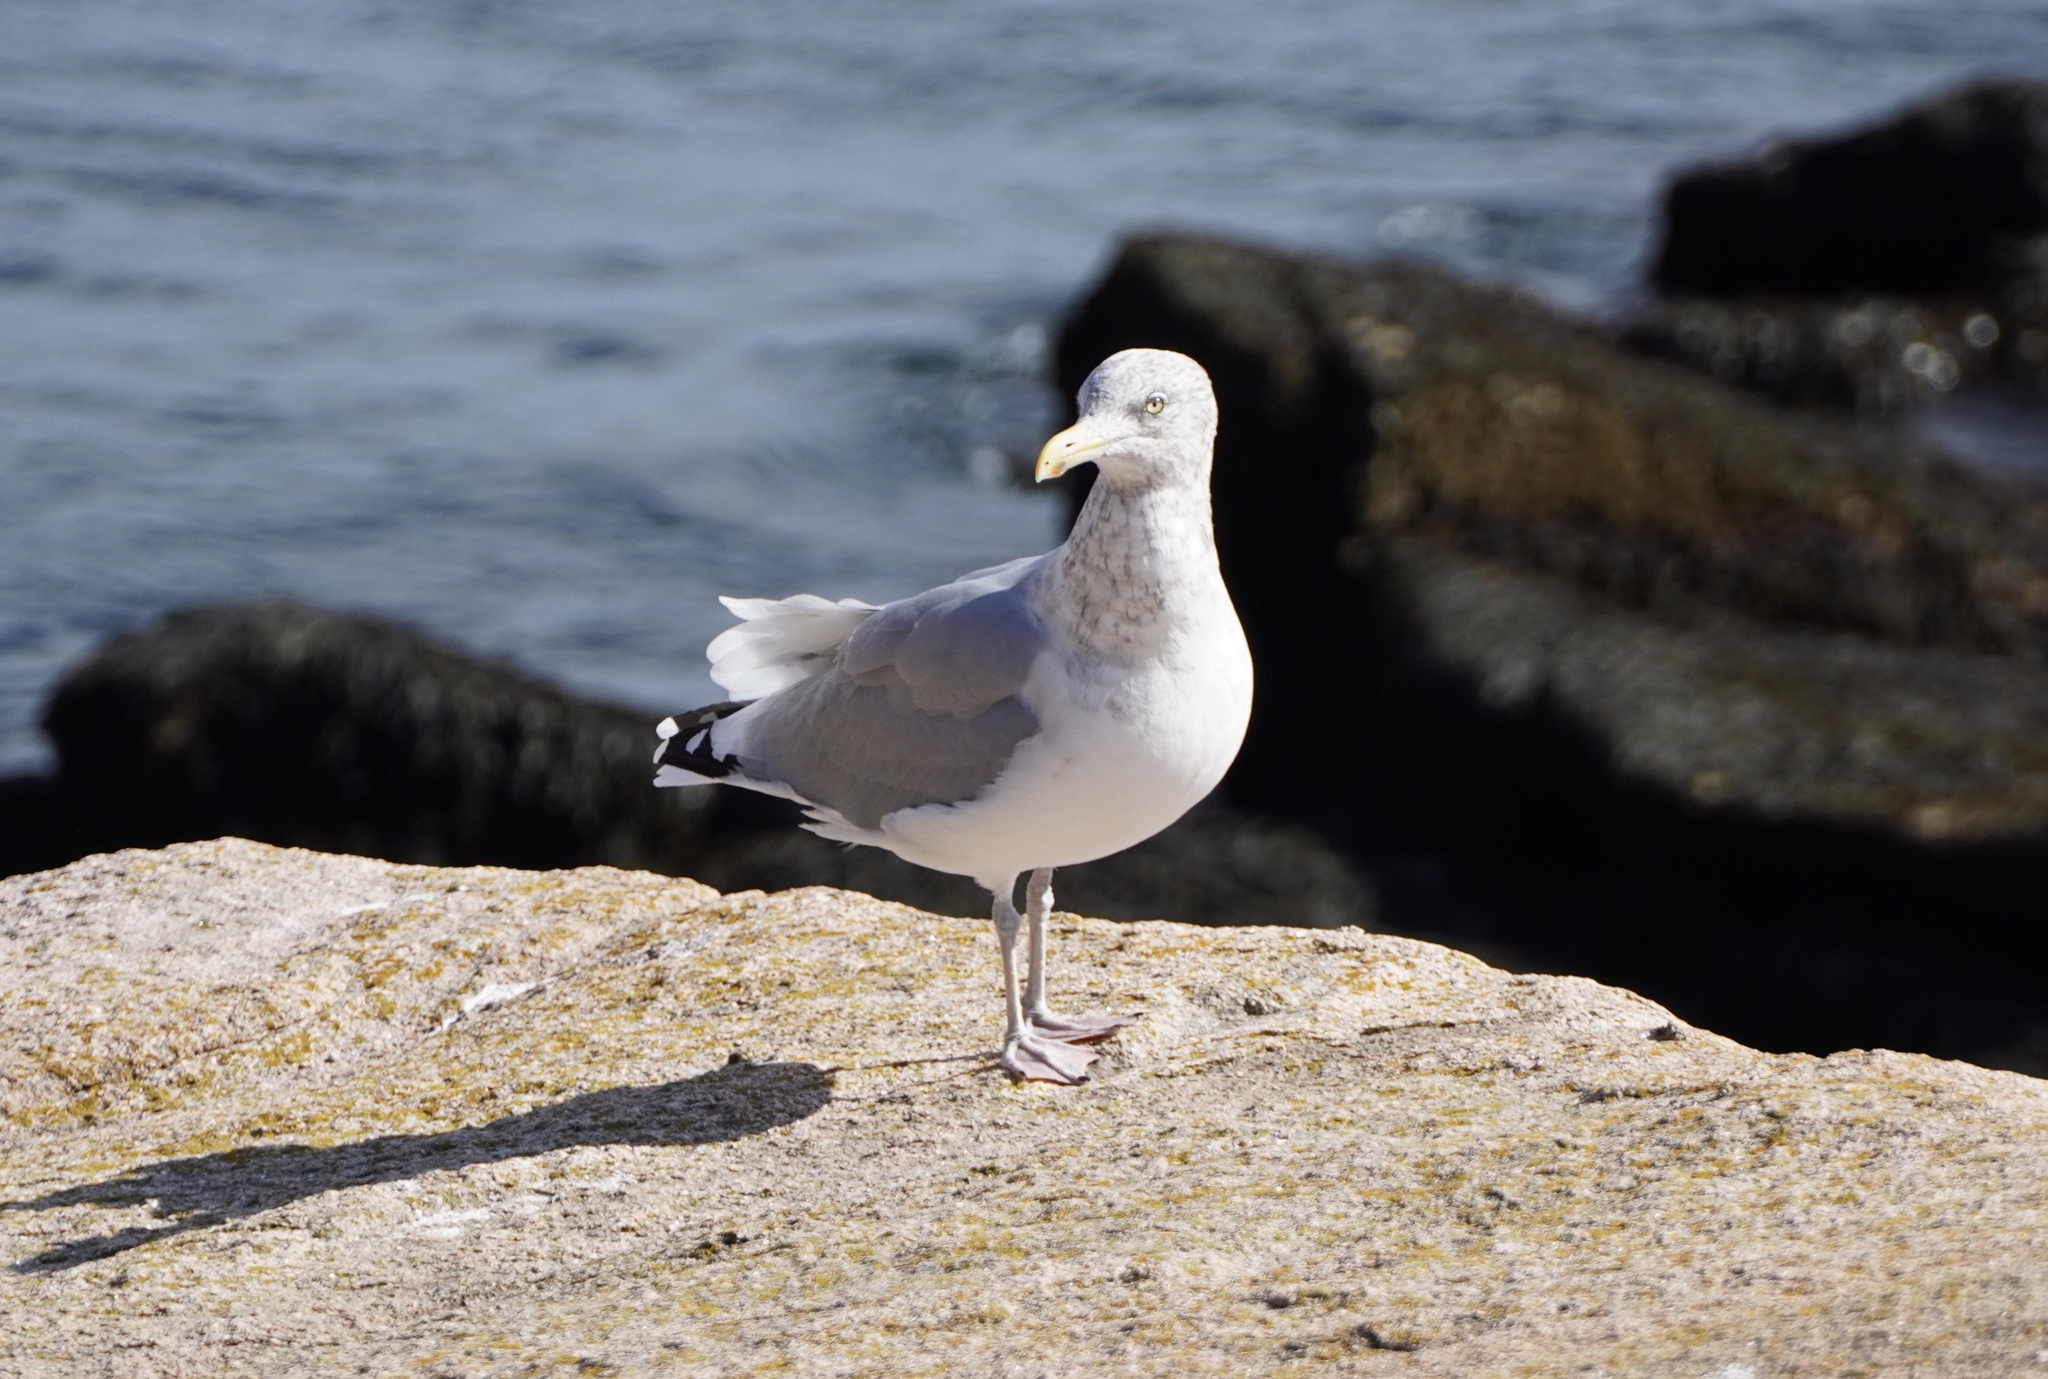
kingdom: Animalia
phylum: Chordata
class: Aves
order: Charadriiformes
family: Laridae
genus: Larus
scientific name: Larus argentatus
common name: Herring gull
